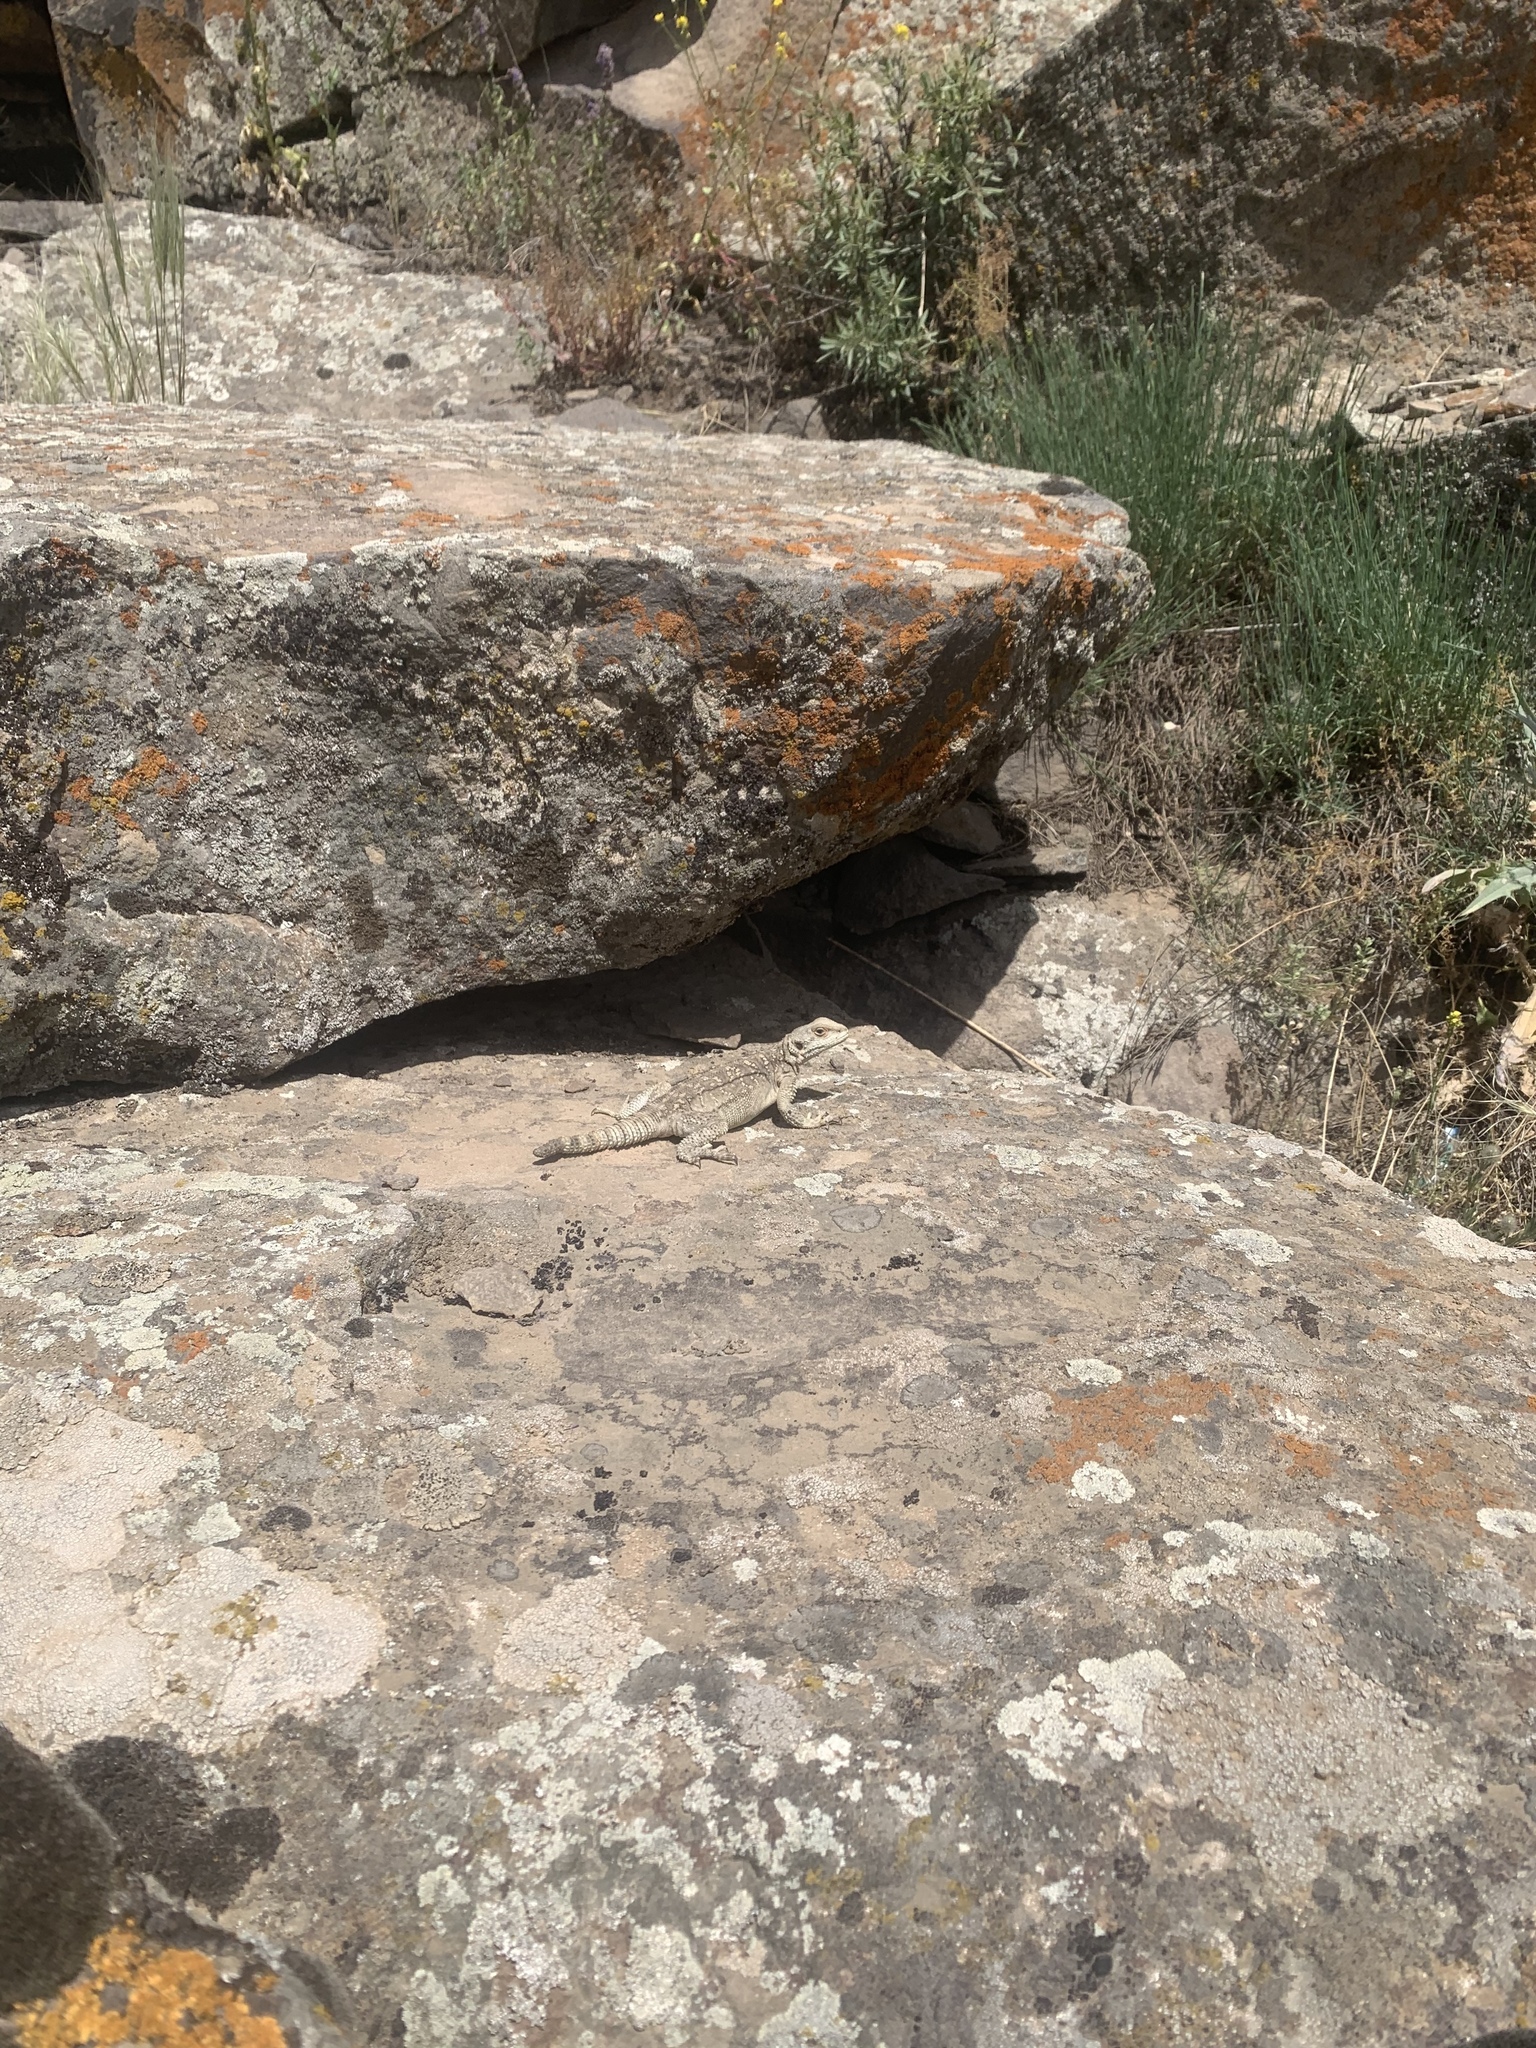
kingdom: Animalia
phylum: Chordata
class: Squamata
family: Agamidae
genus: Paralaudakia
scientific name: Paralaudakia caucasia
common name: Caucasian agama
